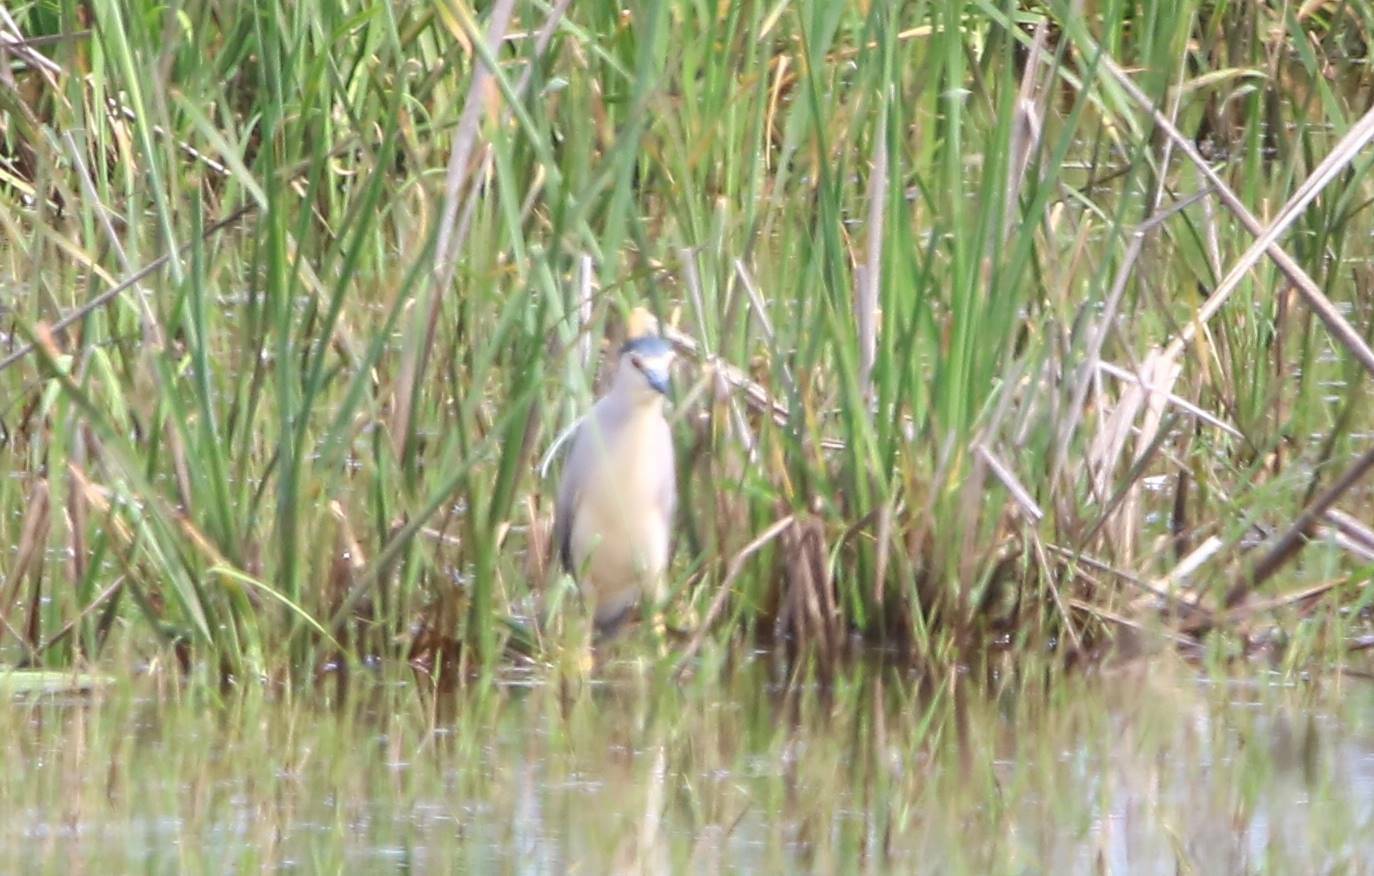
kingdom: Animalia
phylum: Chordata
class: Aves
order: Pelecaniformes
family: Ardeidae
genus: Nycticorax
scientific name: Nycticorax nycticorax
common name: Black-crowned night heron
